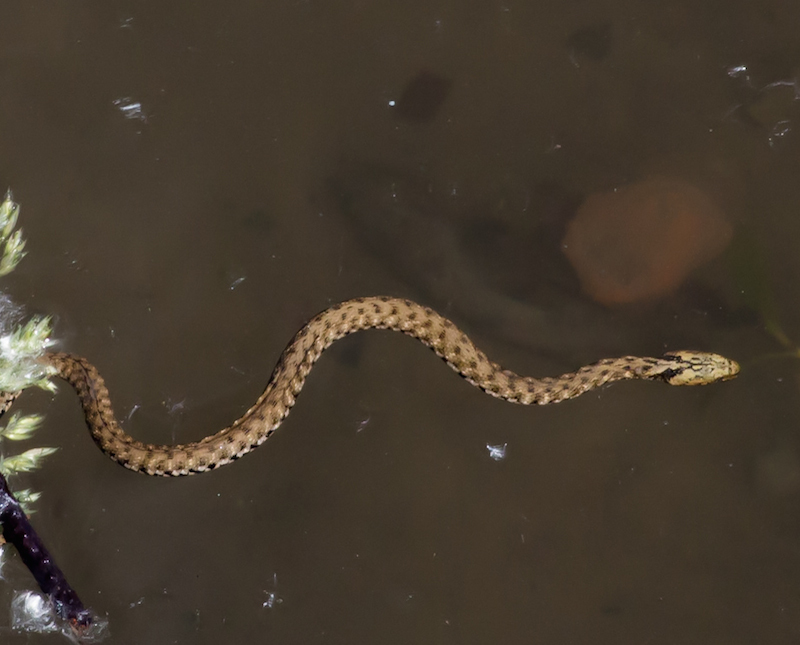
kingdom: Animalia
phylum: Chordata
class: Squamata
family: Colubridae
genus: Natrix
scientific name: Natrix tessellata
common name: Dice snake
